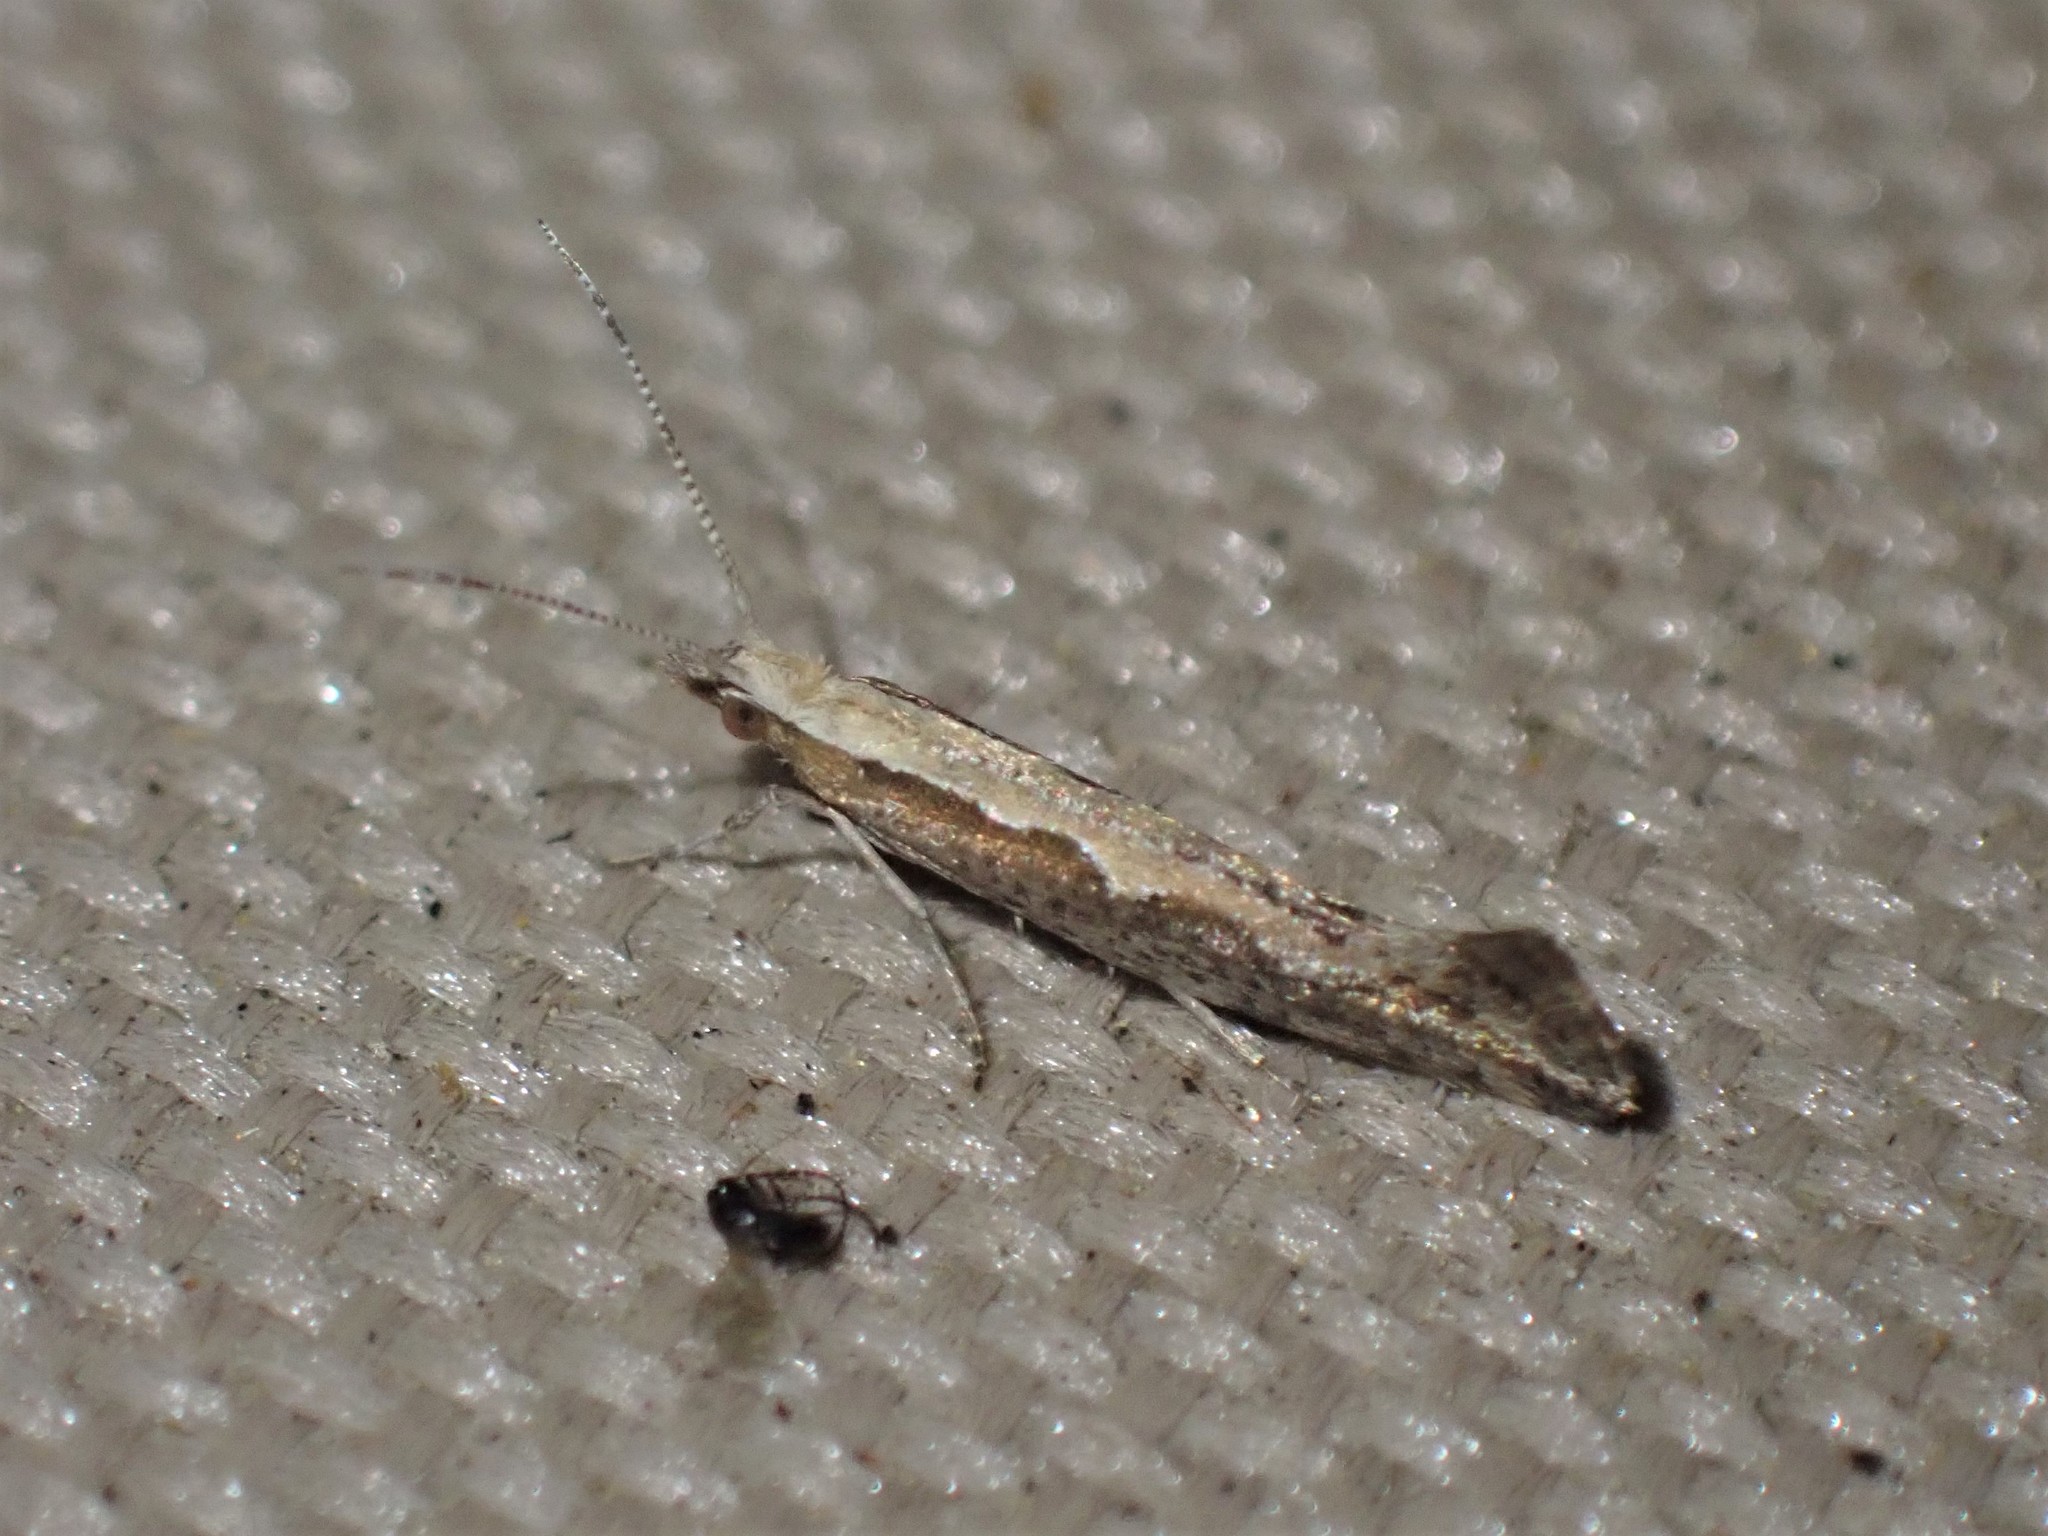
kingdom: Animalia
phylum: Arthropoda
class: Insecta
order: Lepidoptera
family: Plutellidae
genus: Plutella
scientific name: Plutella xylostella
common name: Diamond-back moth
